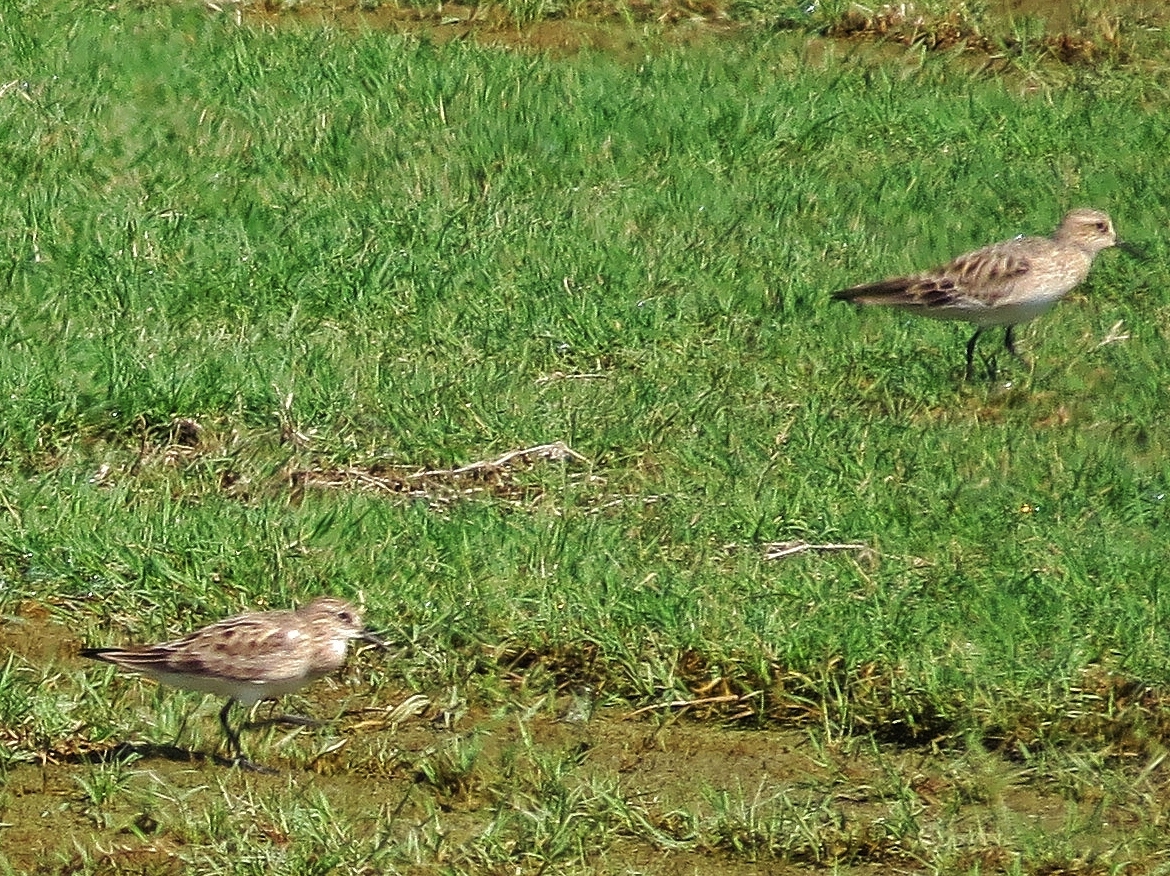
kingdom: Animalia
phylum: Chordata
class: Aves
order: Charadriiformes
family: Scolopacidae
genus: Calidris
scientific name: Calidris bairdii
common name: Baird's sandpiper
